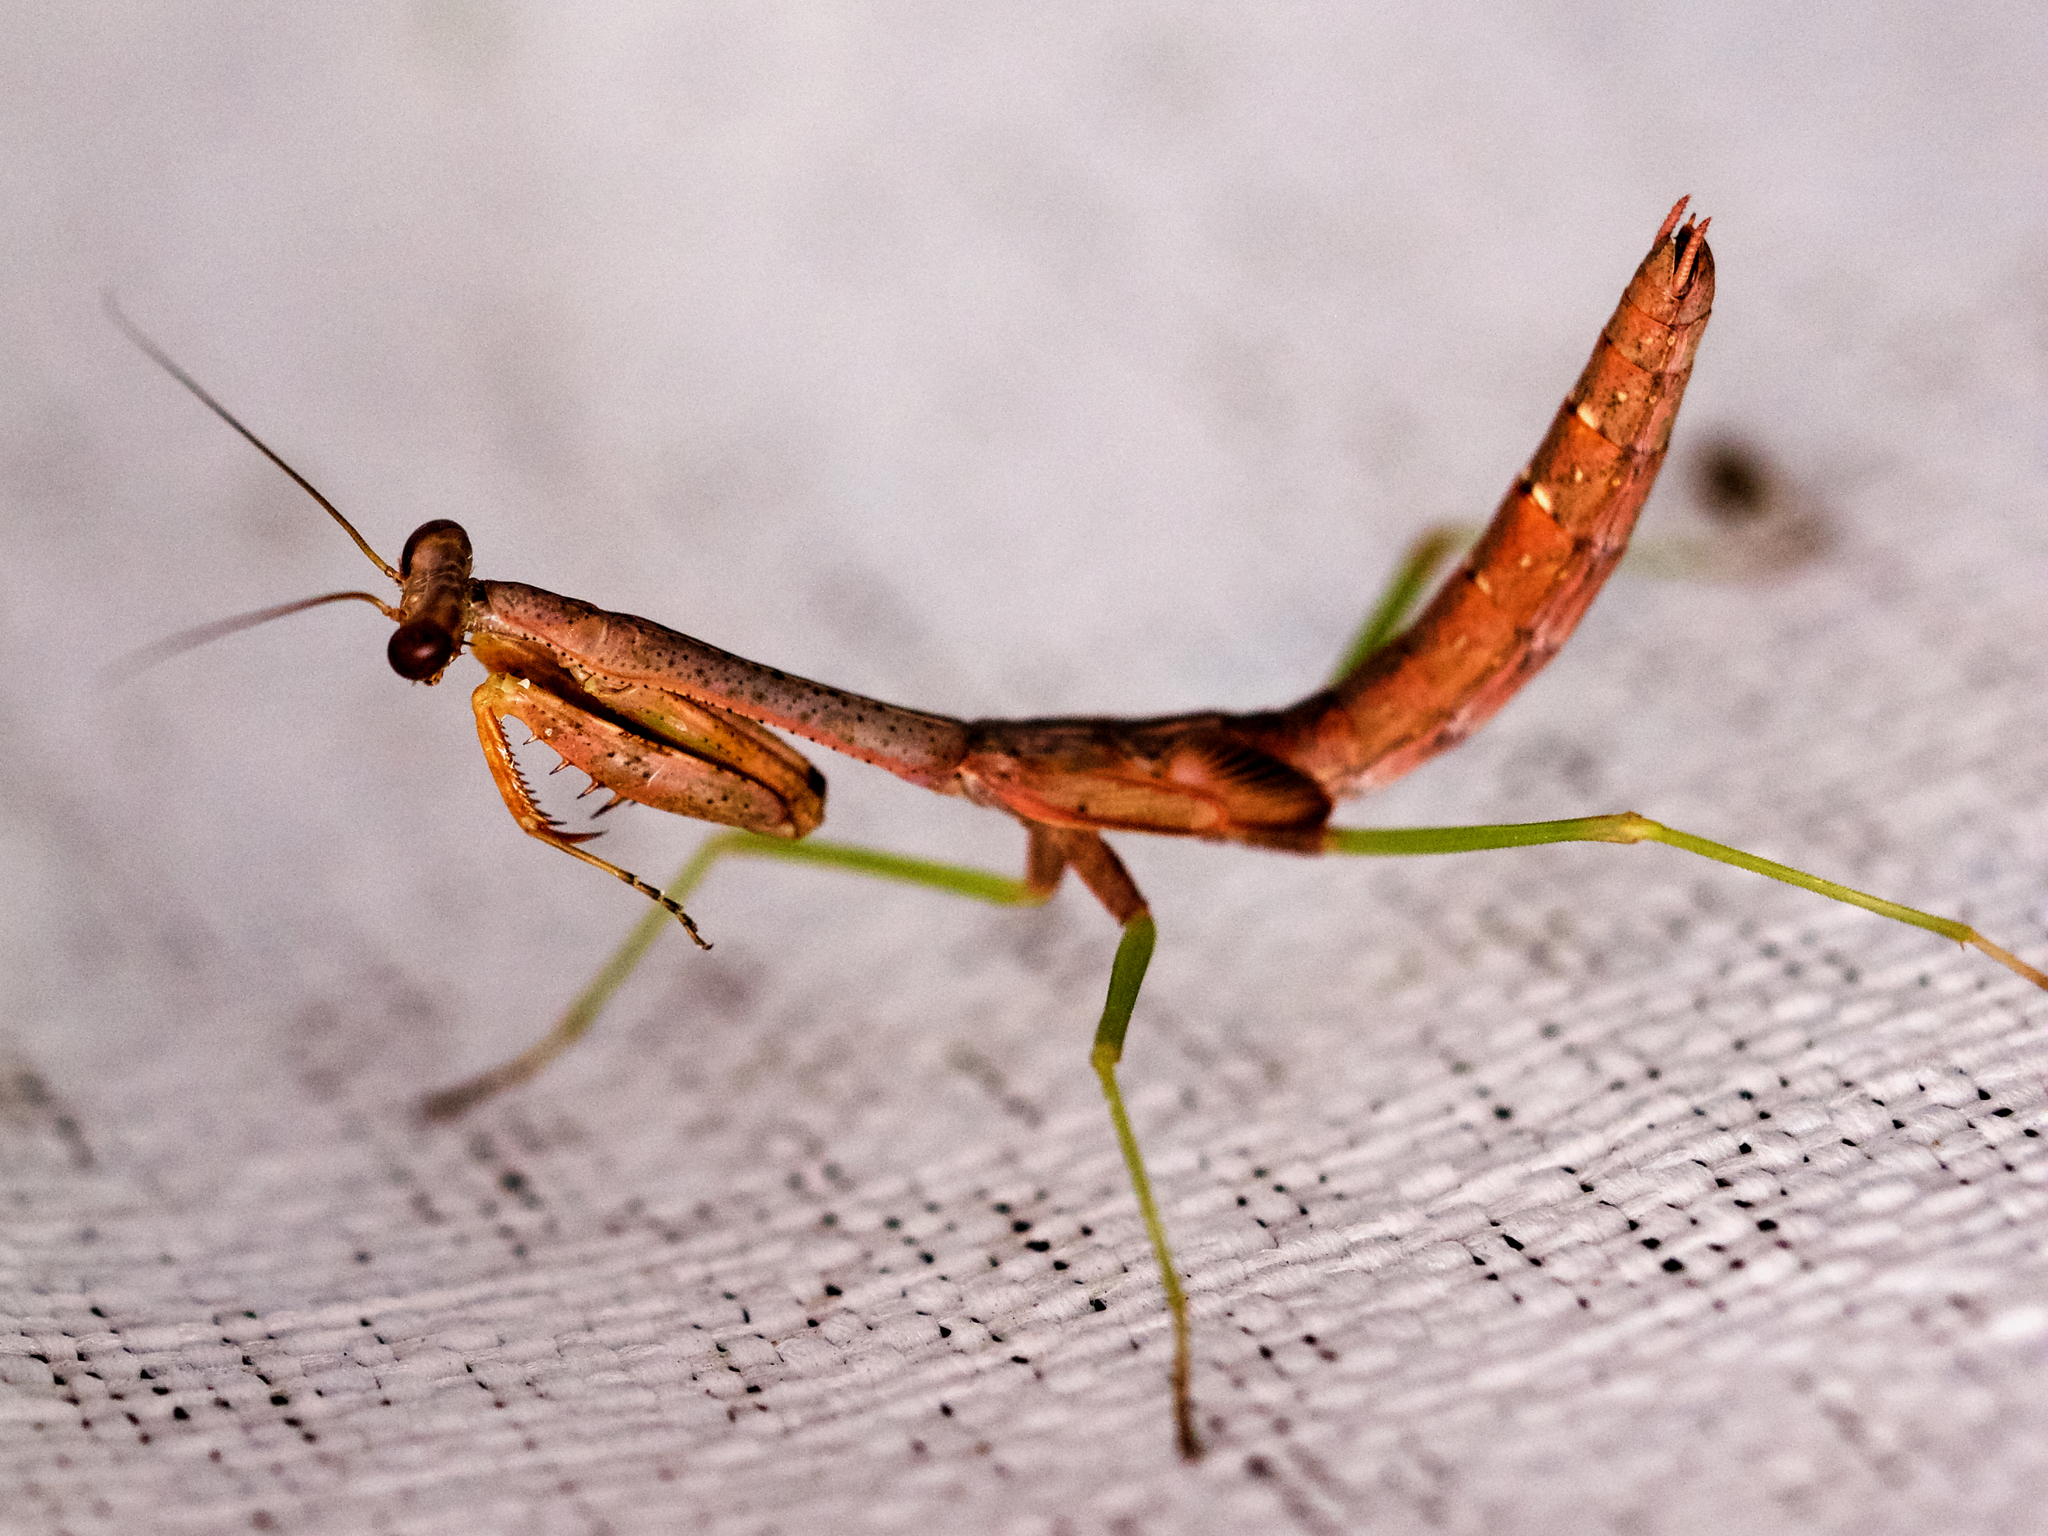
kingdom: Animalia
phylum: Arthropoda
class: Insecta
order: Mantodea
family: Mantidae
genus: Stagmomantis
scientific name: Stagmomantis carolina
